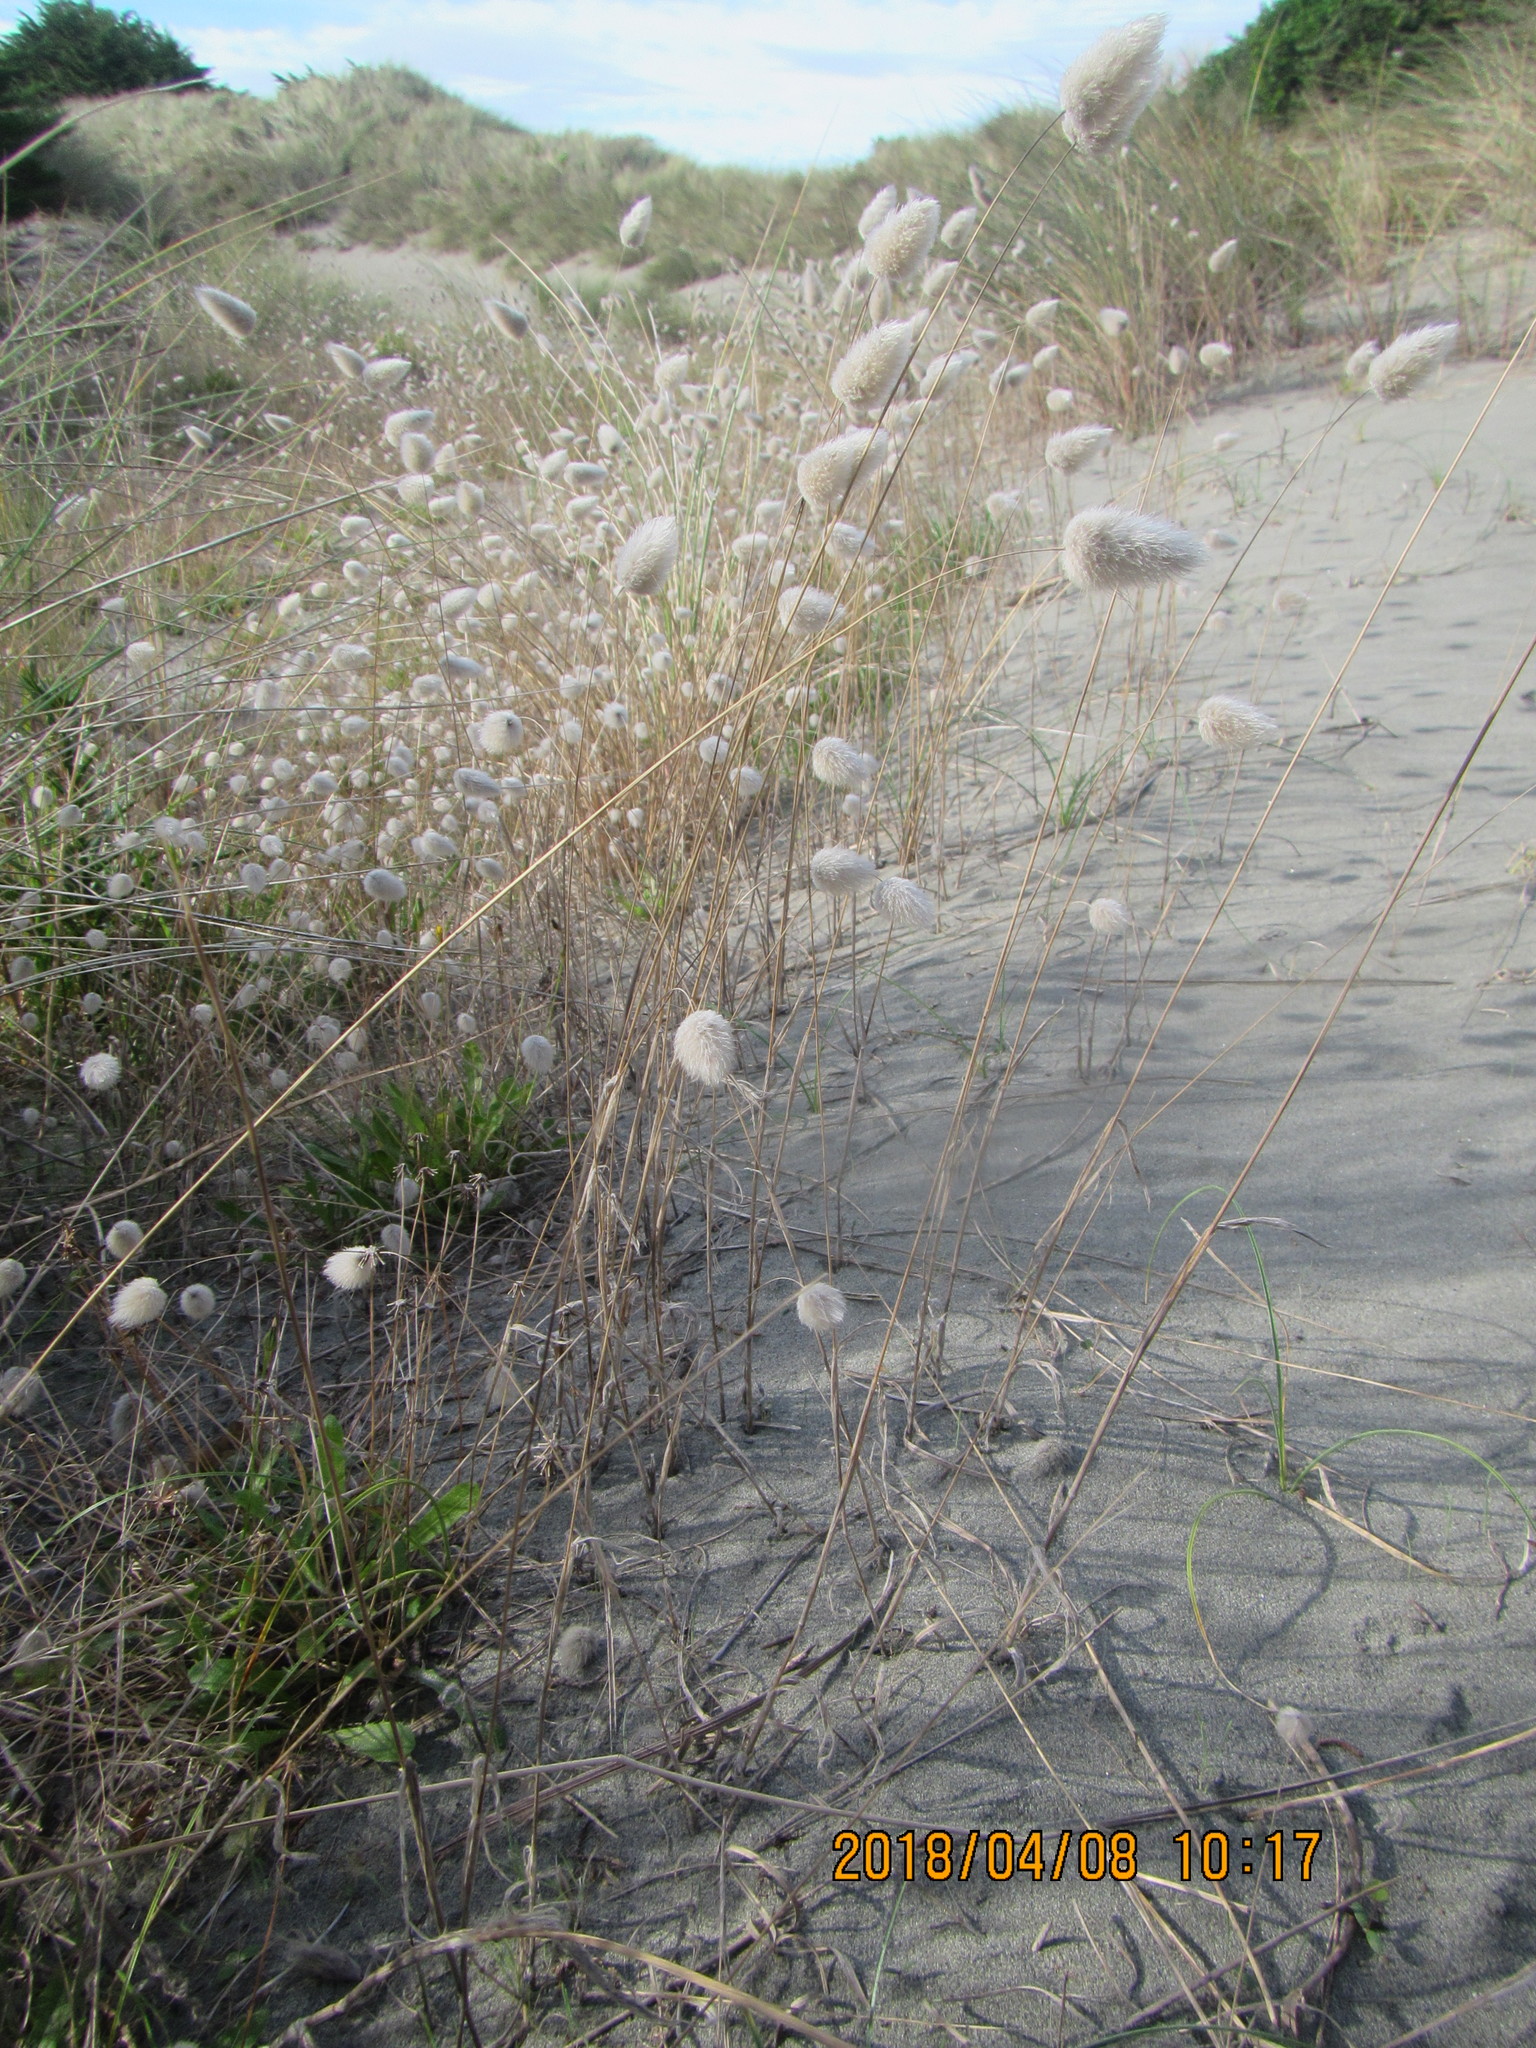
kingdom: Plantae
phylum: Tracheophyta
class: Liliopsida
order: Poales
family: Poaceae
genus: Lagurus
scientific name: Lagurus ovatus
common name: Hare's-tail
